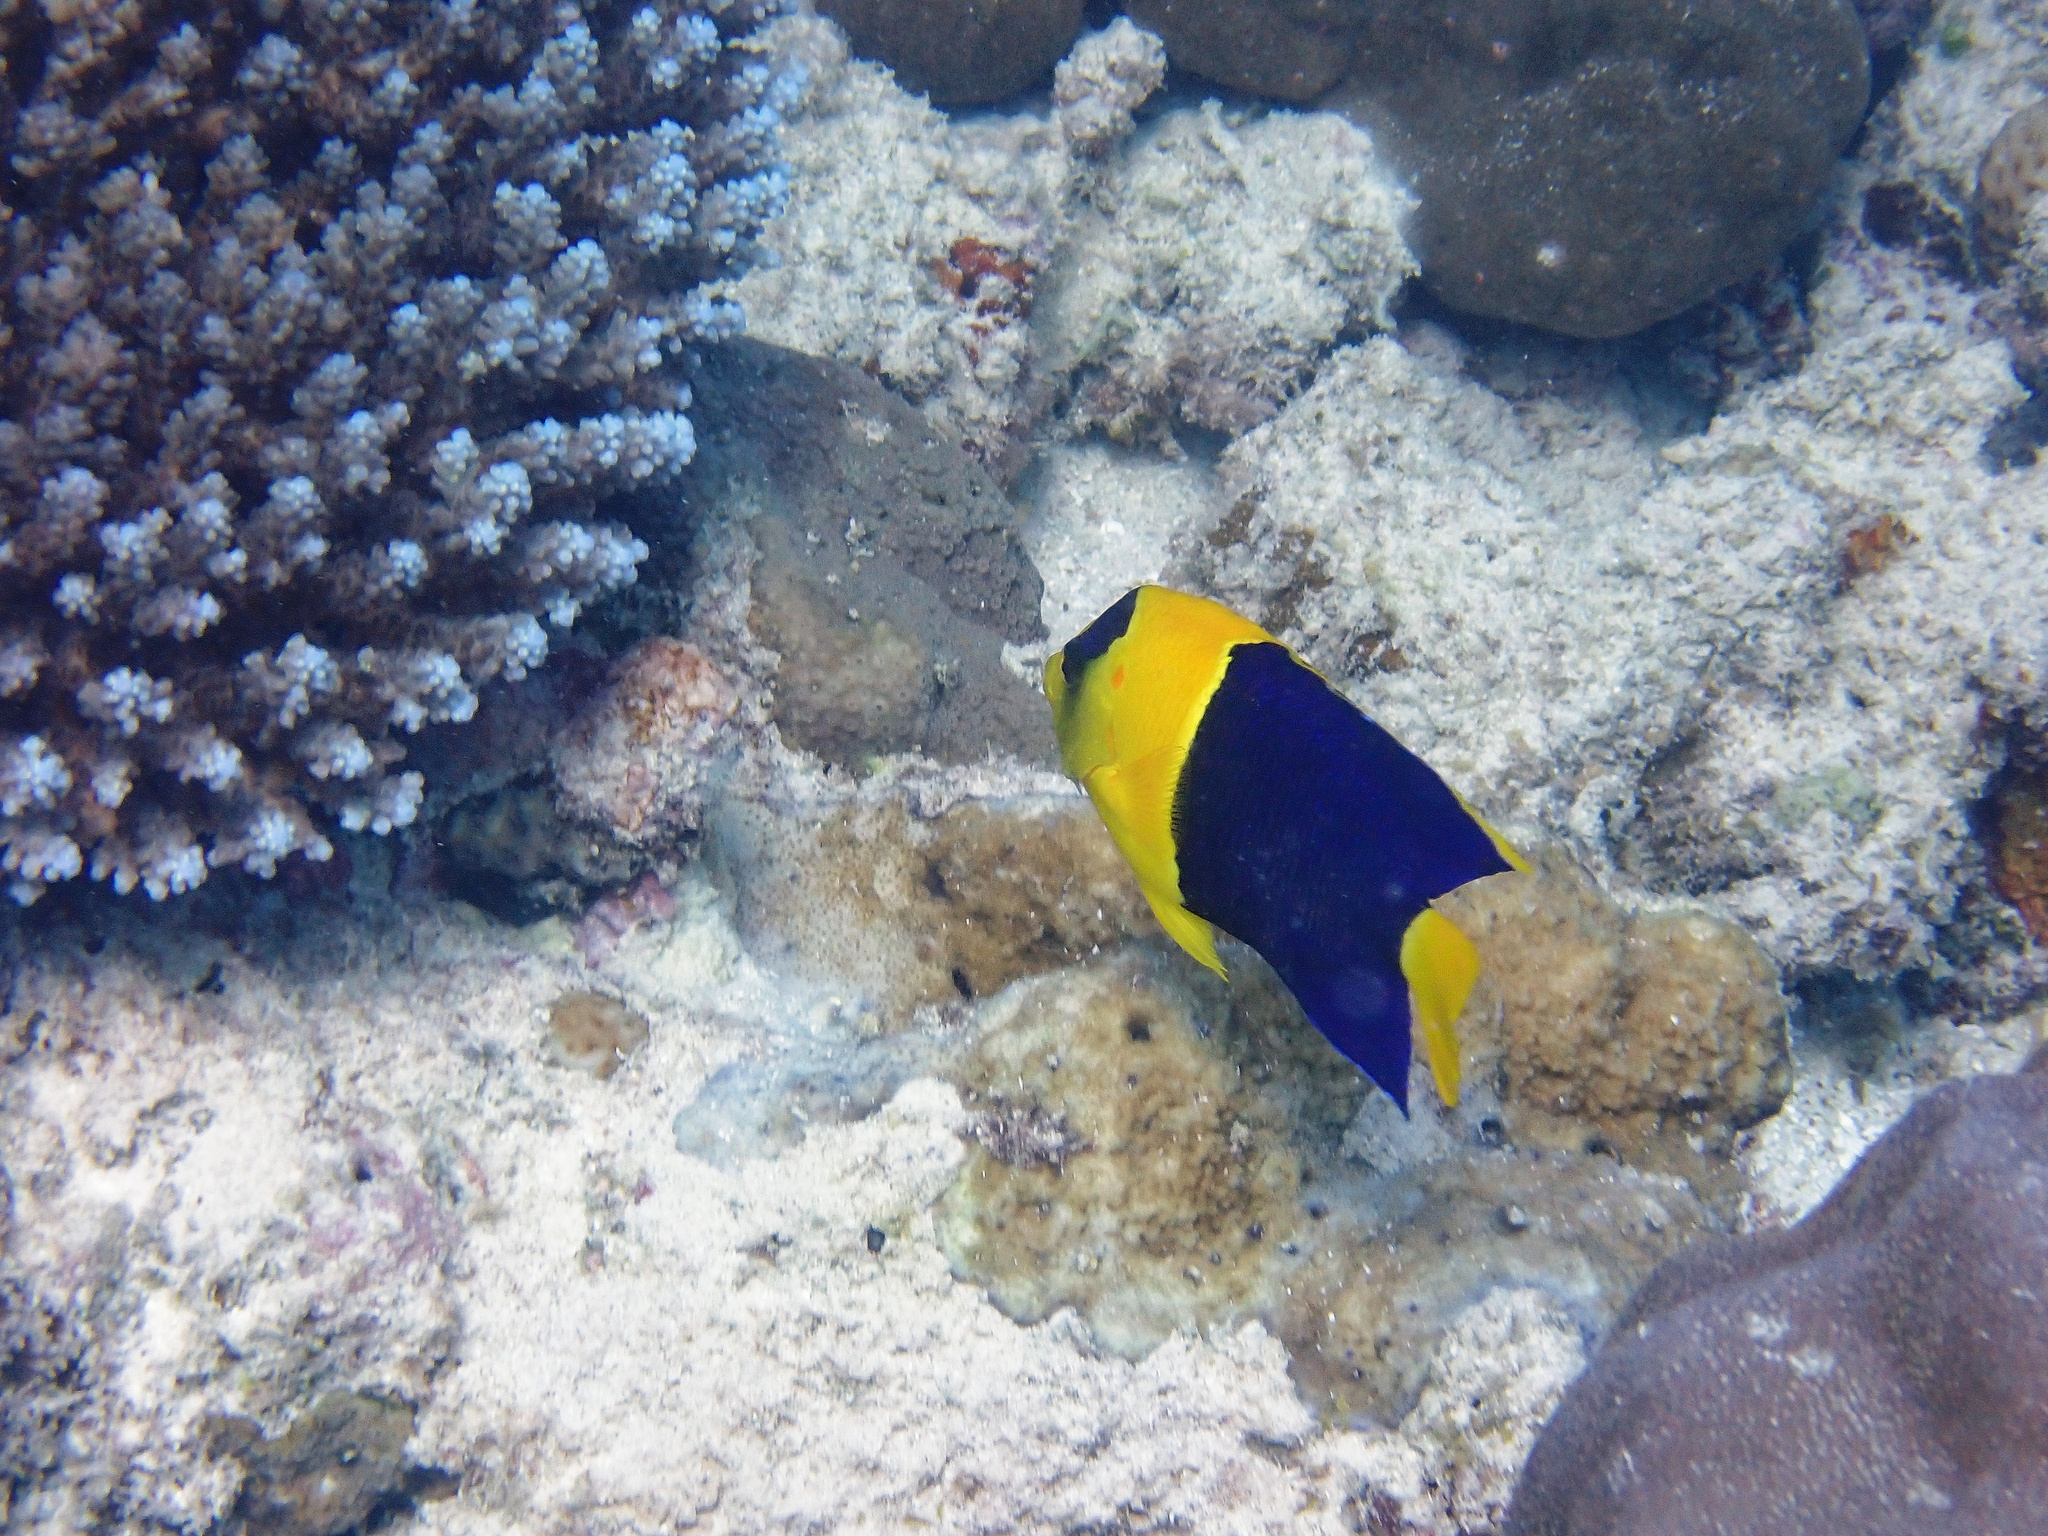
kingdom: Animalia
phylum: Chordata
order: Perciformes
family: Pomacanthidae
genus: Centropyge
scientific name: Centropyge bicolor
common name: Bicolor angelfish
